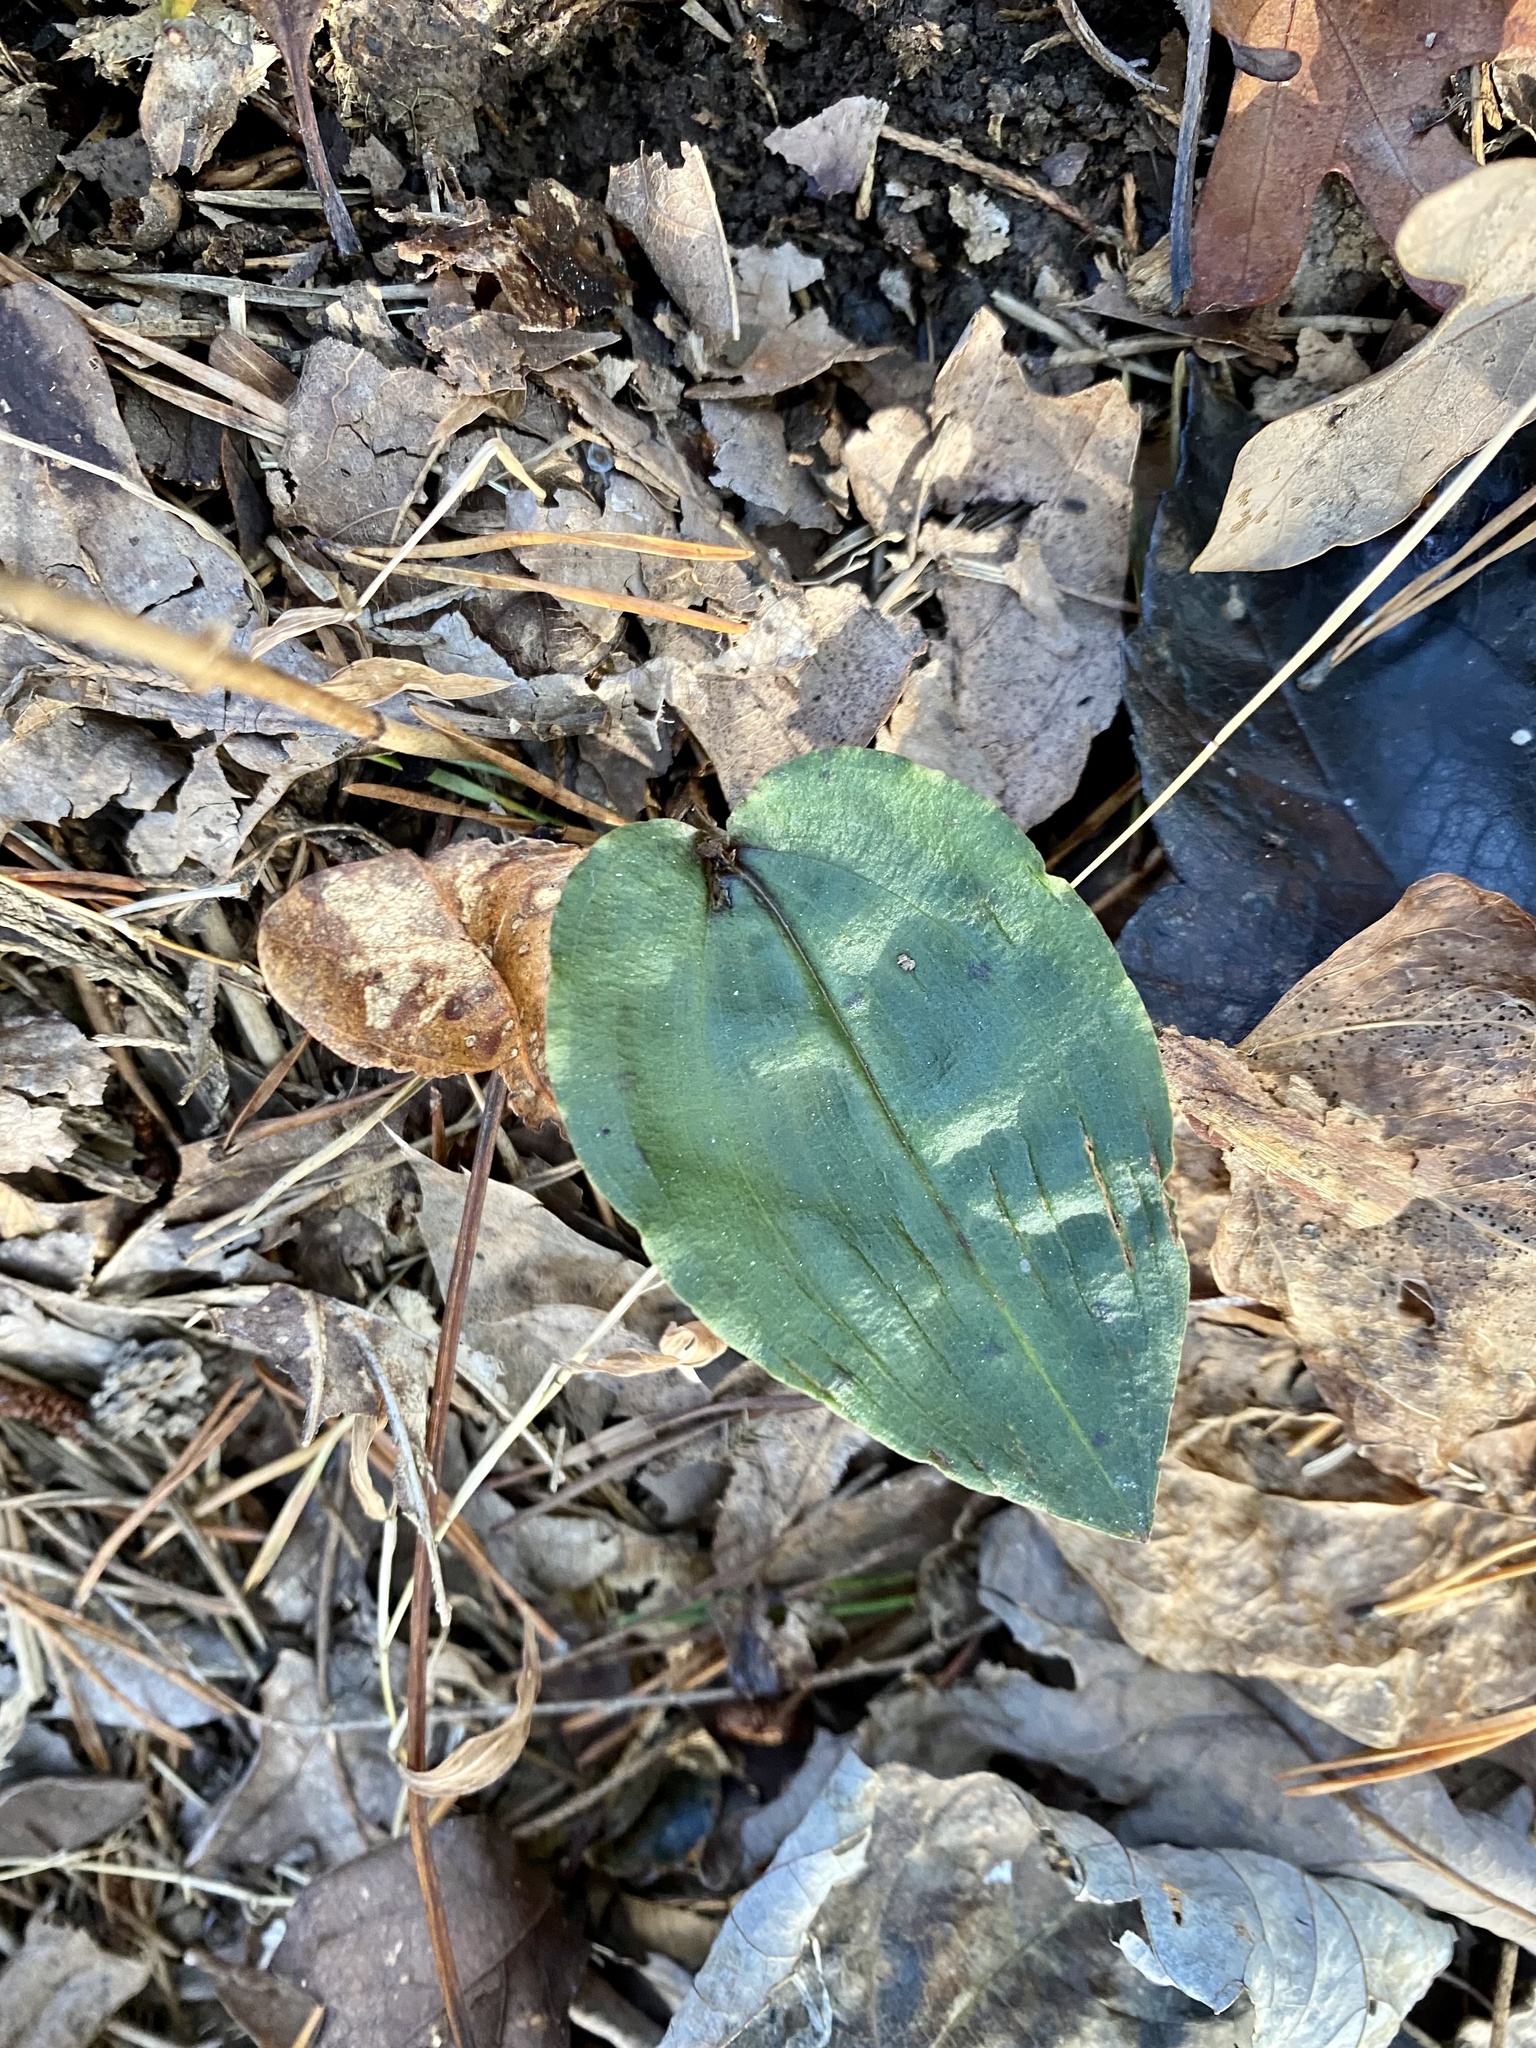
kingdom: Plantae
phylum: Tracheophyta
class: Liliopsida
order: Asparagales
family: Orchidaceae
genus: Tipularia
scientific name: Tipularia discolor
